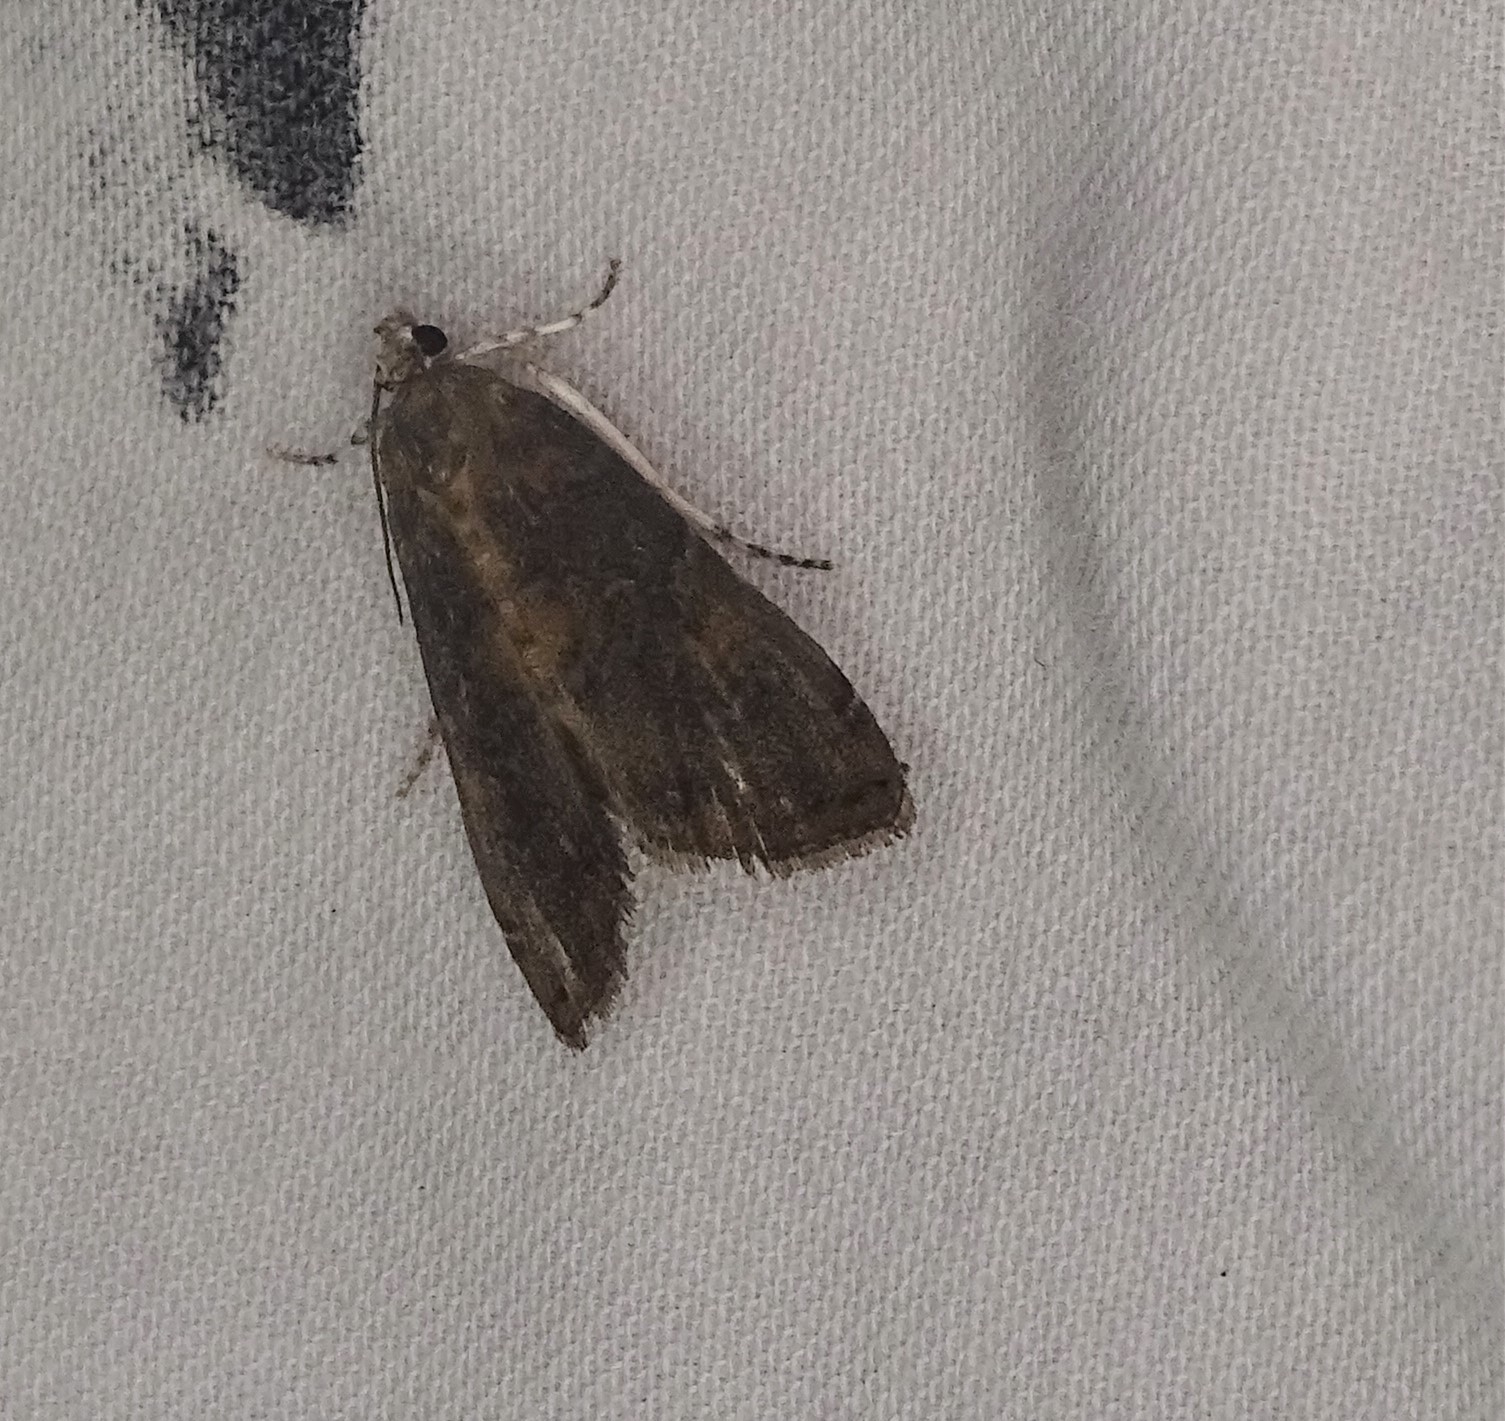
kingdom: Animalia
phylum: Arthropoda
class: Insecta
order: Lepidoptera
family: Crambidae
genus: Elophila
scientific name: Elophila gyralis
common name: Waterlily borer moth
